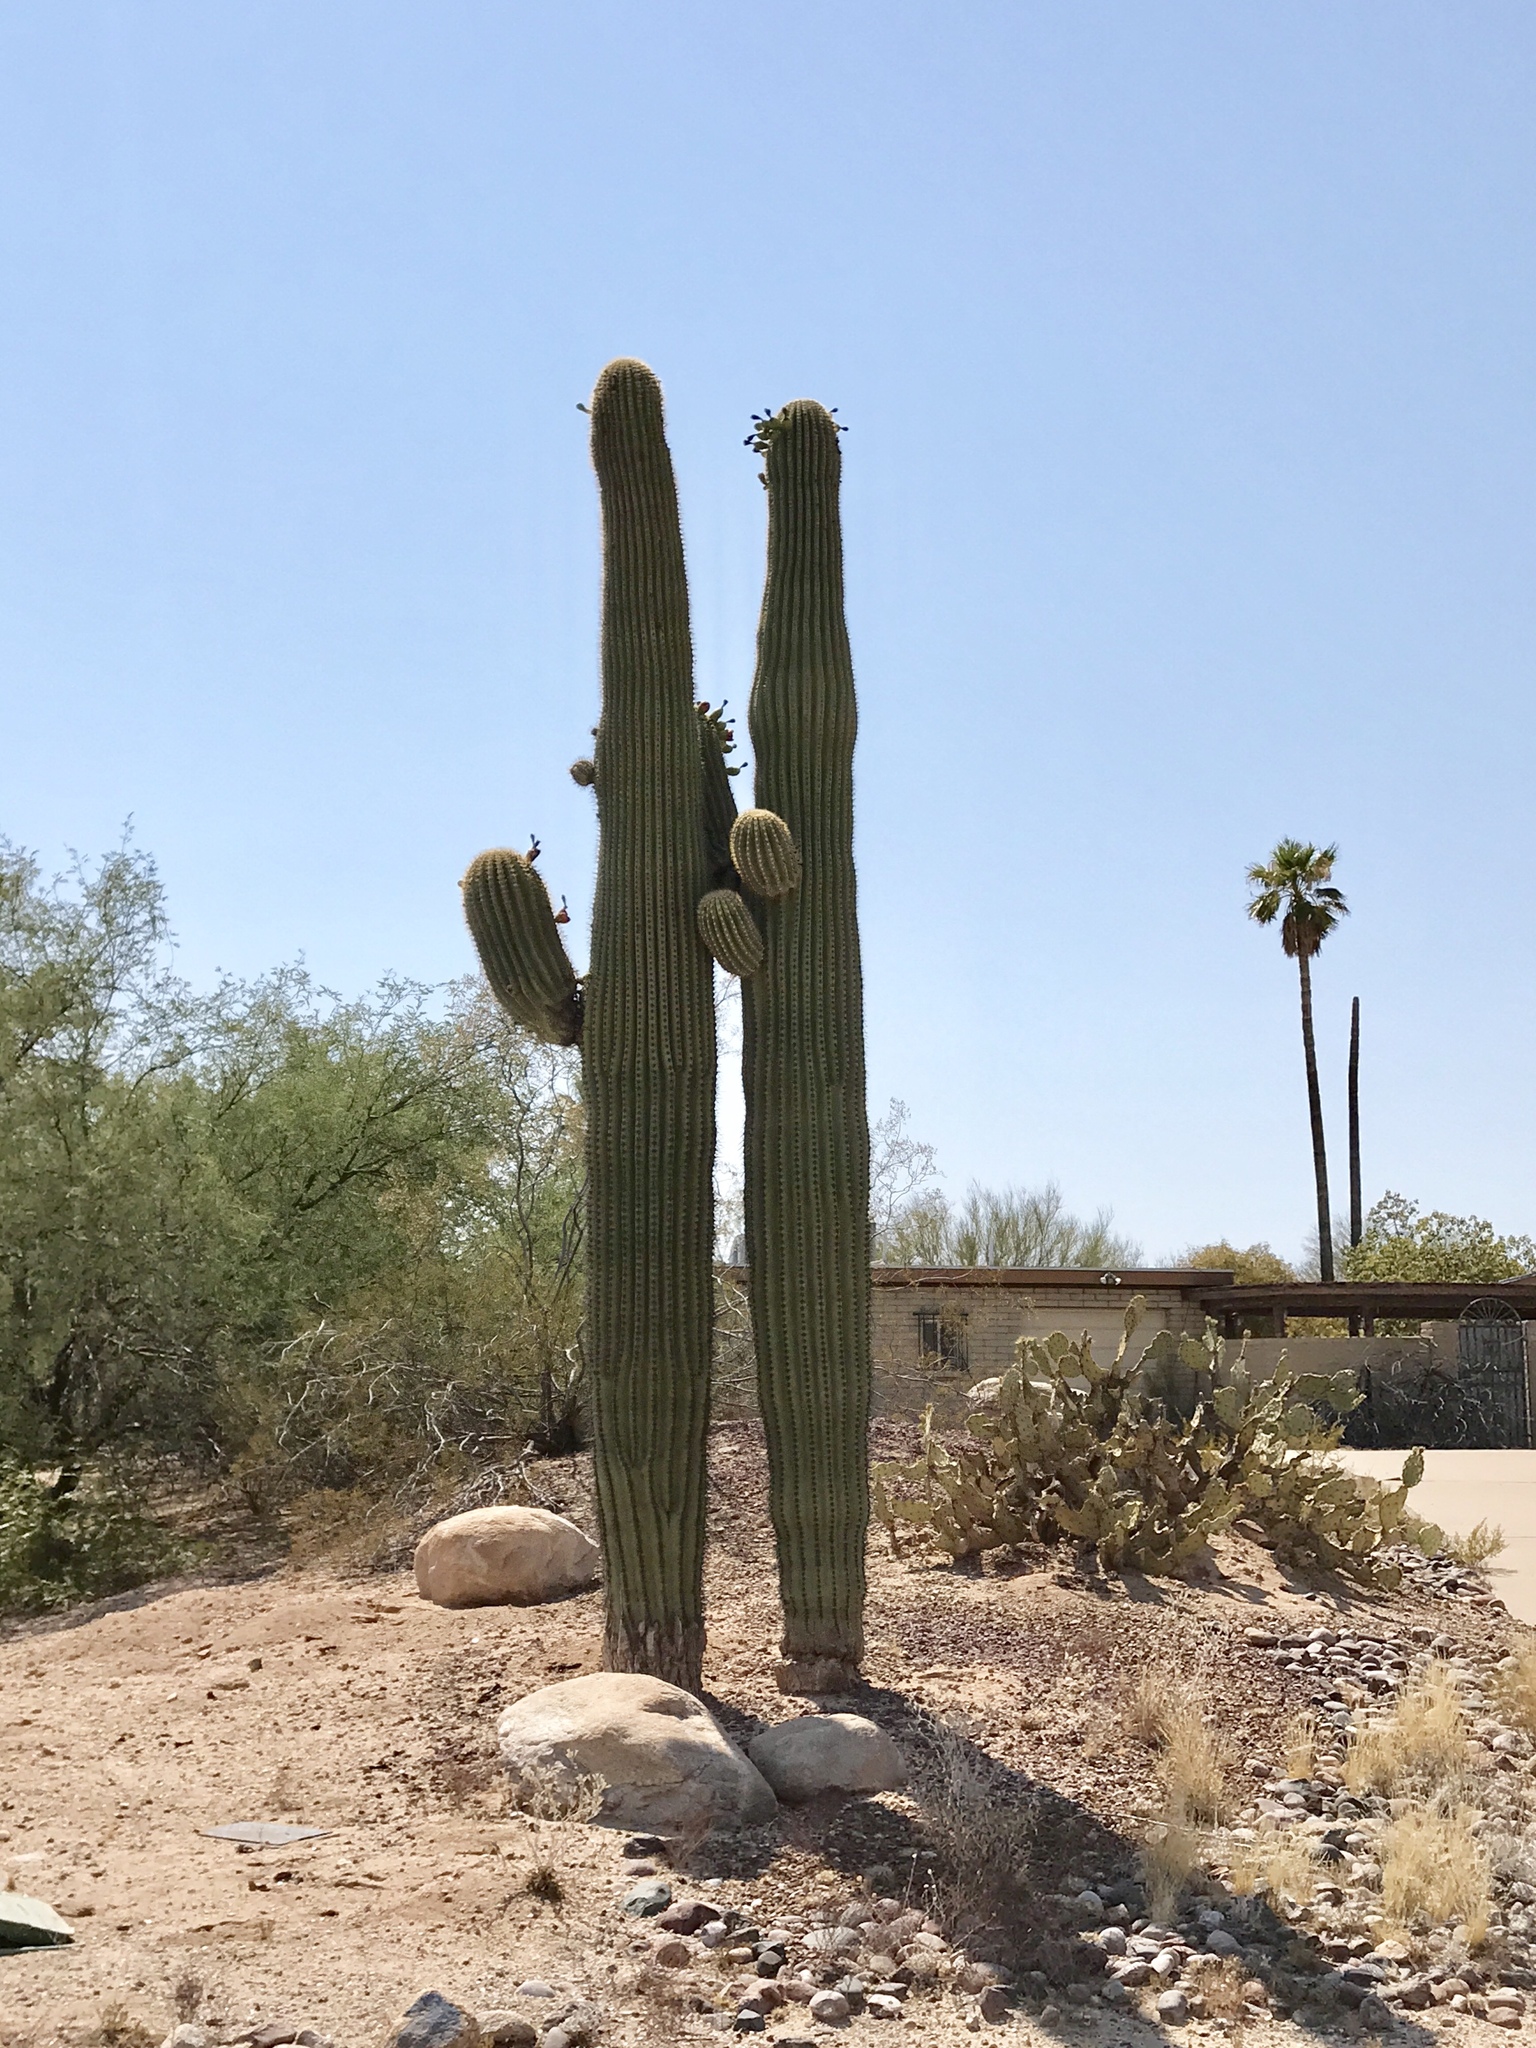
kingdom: Plantae
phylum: Tracheophyta
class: Magnoliopsida
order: Caryophyllales
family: Cactaceae
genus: Carnegiea
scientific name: Carnegiea gigantea
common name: Saguaro
